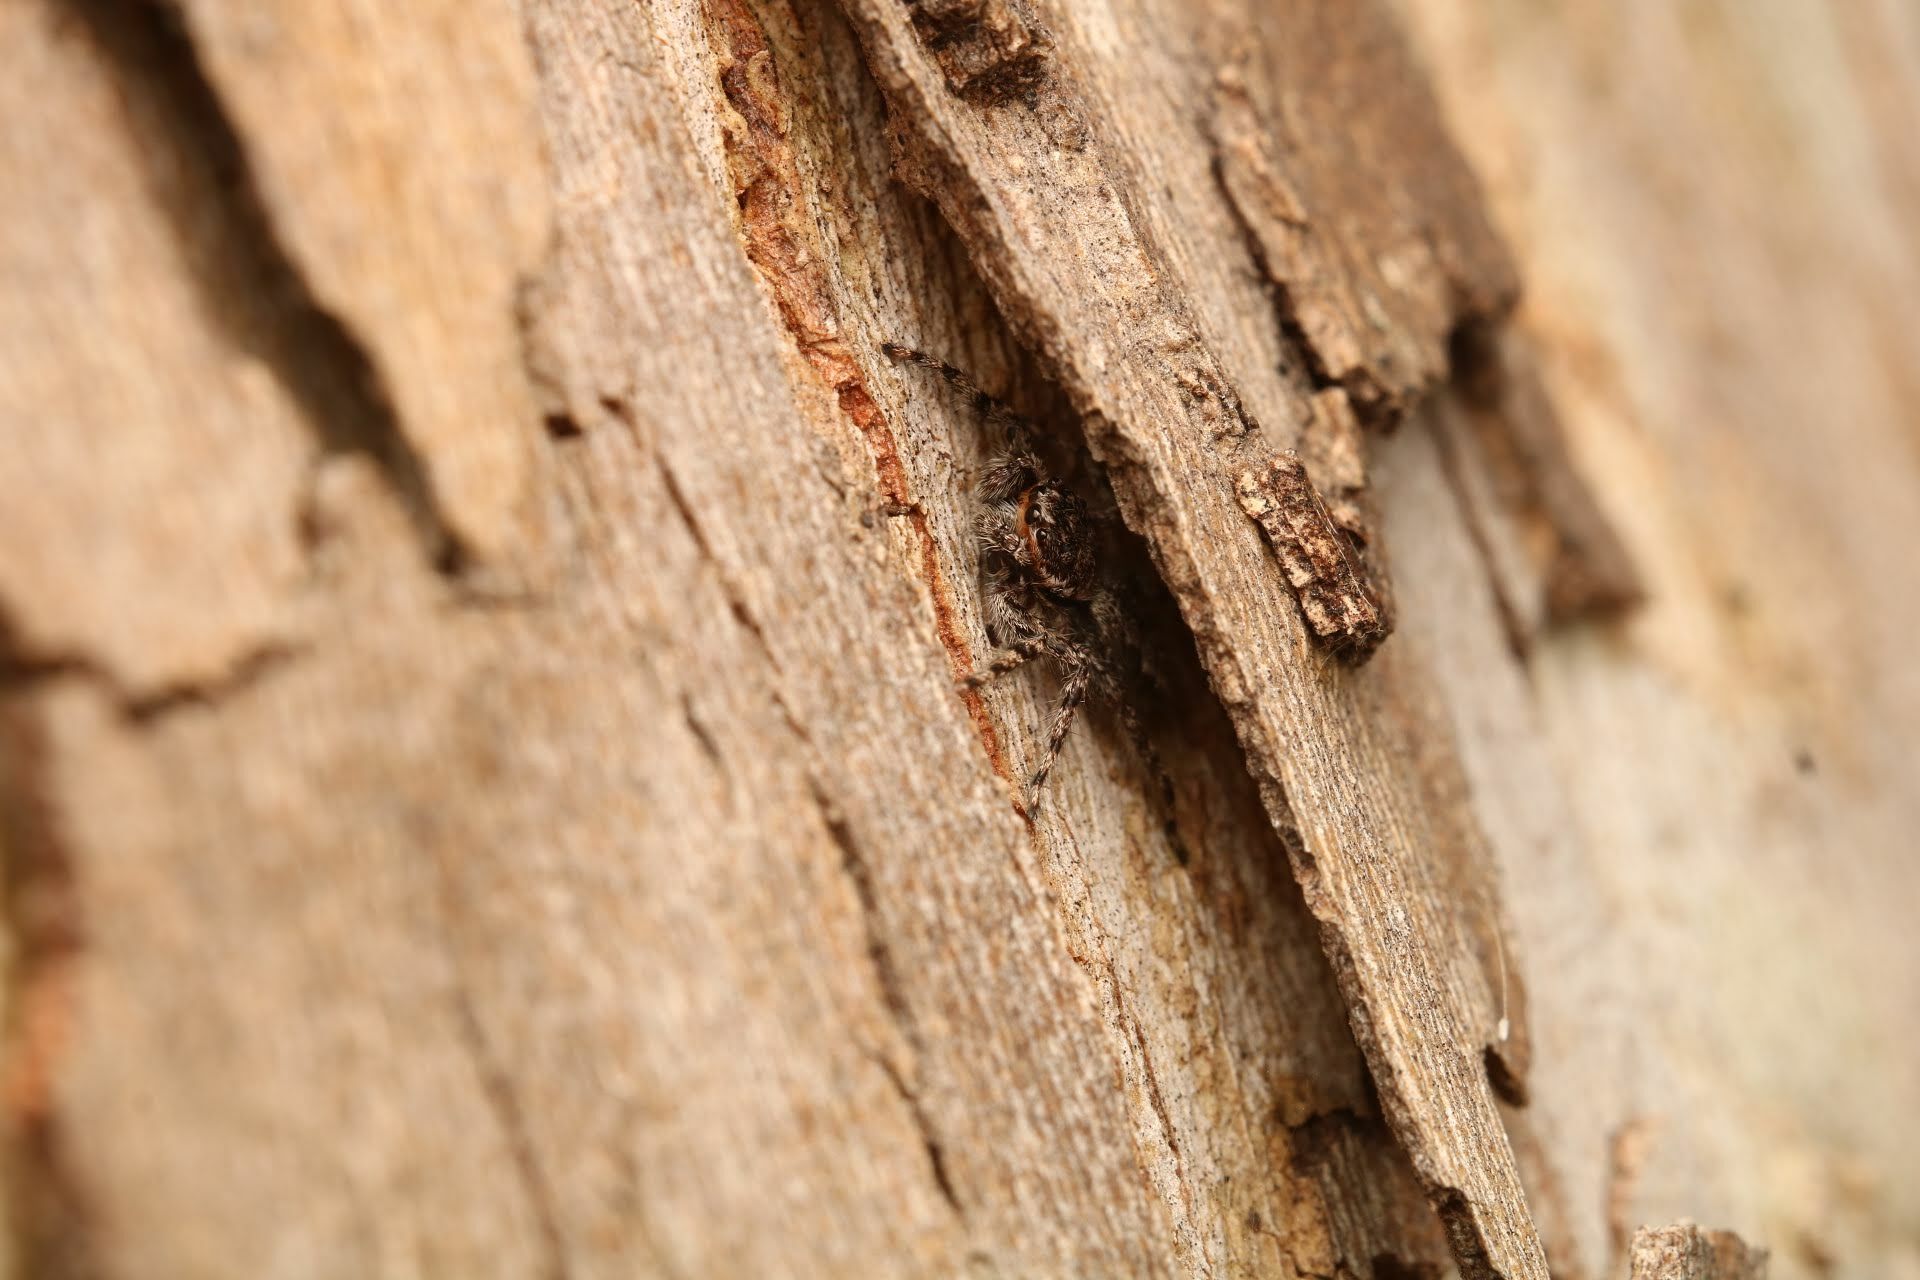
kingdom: Animalia
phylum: Arthropoda
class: Arachnida
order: Araneae
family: Salticidae
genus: Platycryptus
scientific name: Platycryptus undatus
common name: Tan jumping spider
